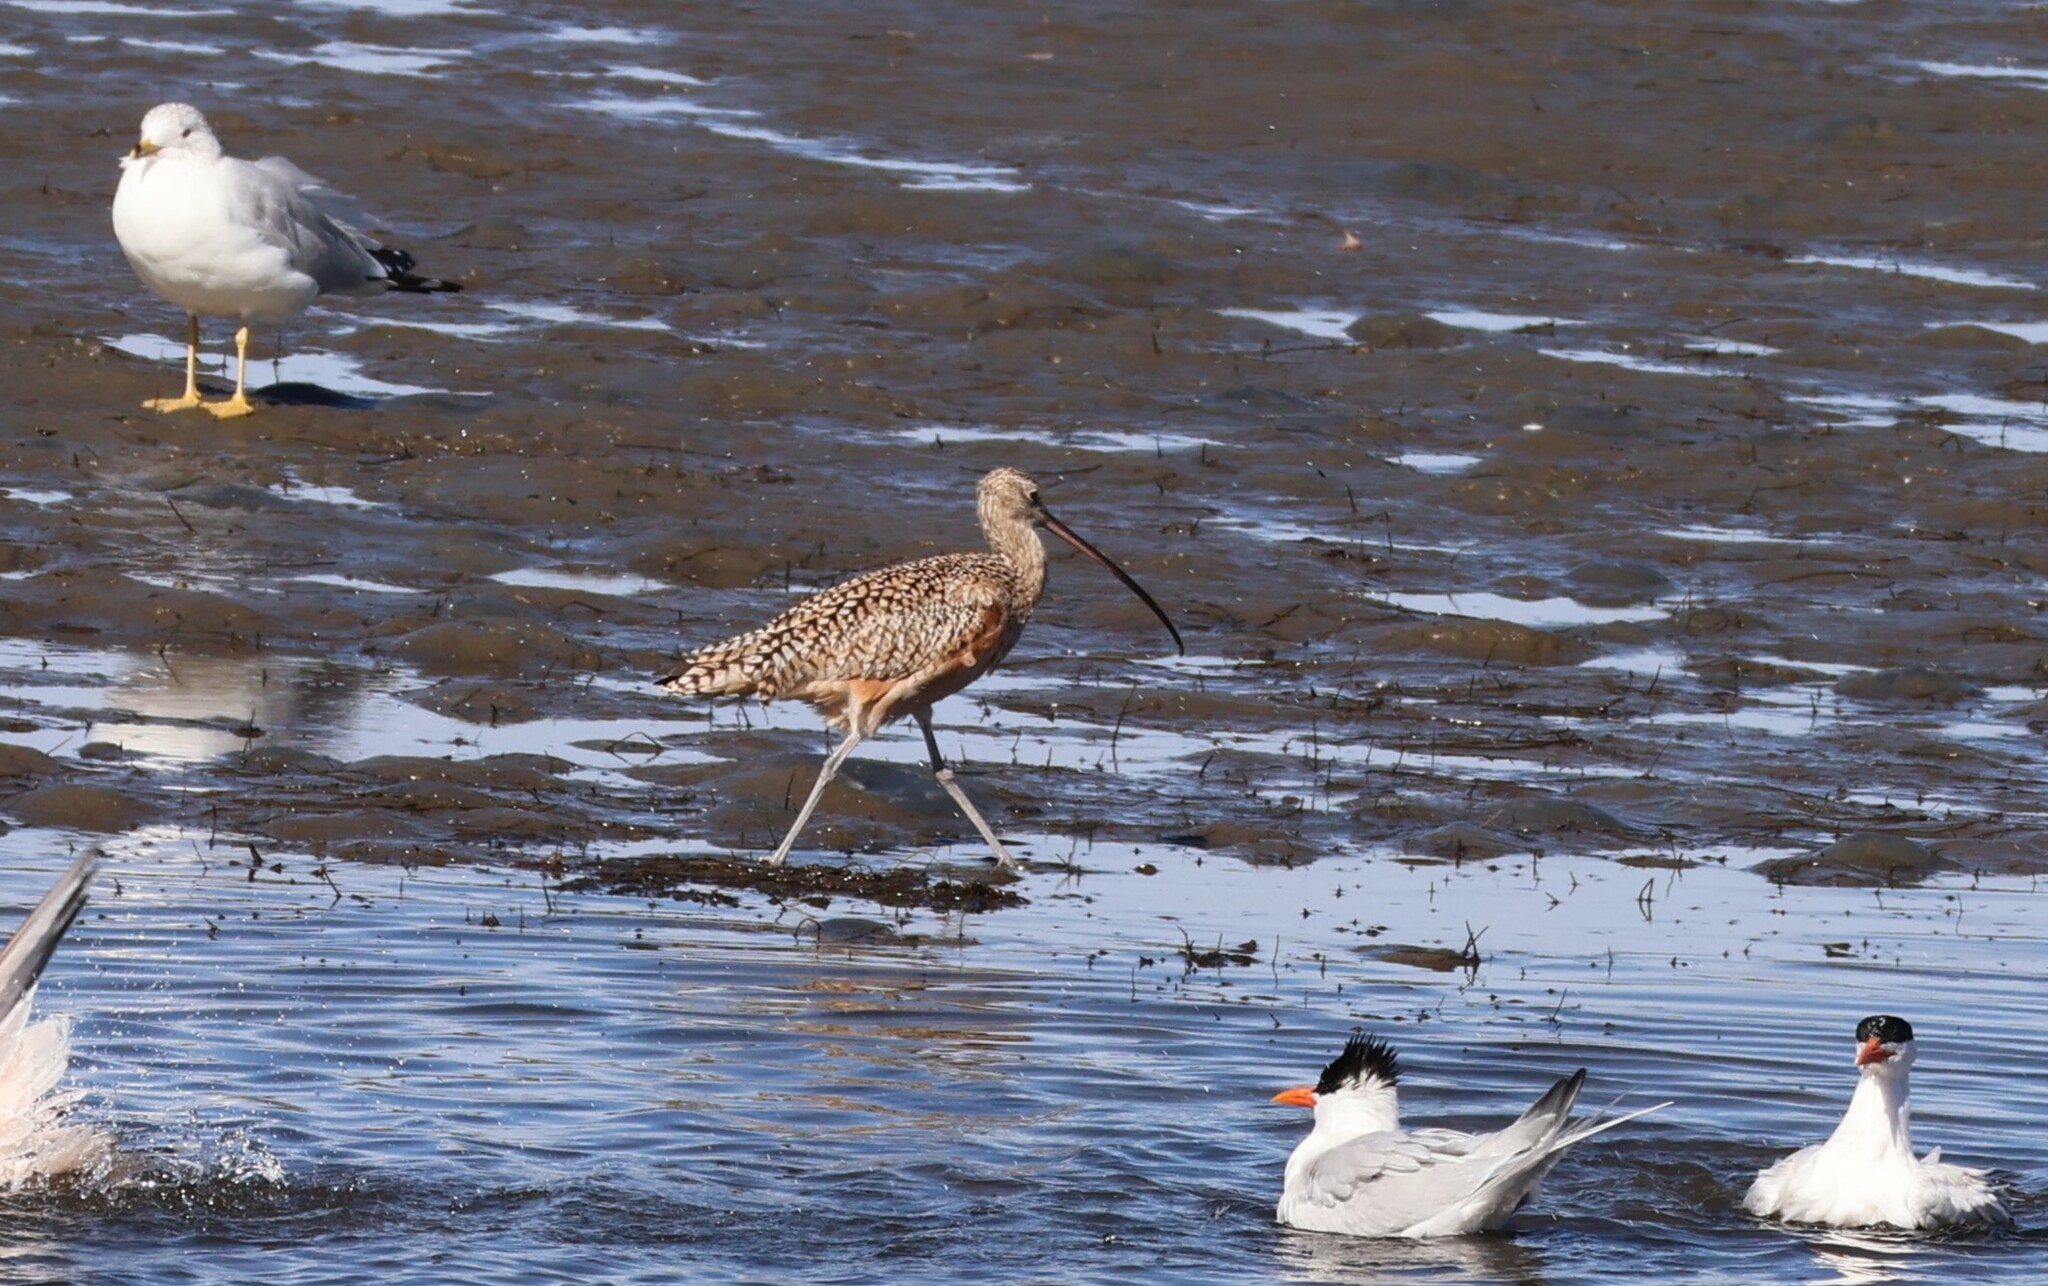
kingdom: Animalia
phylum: Chordata
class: Aves
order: Charadriiformes
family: Scolopacidae
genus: Numenius
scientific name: Numenius americanus
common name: Long-billed curlew
